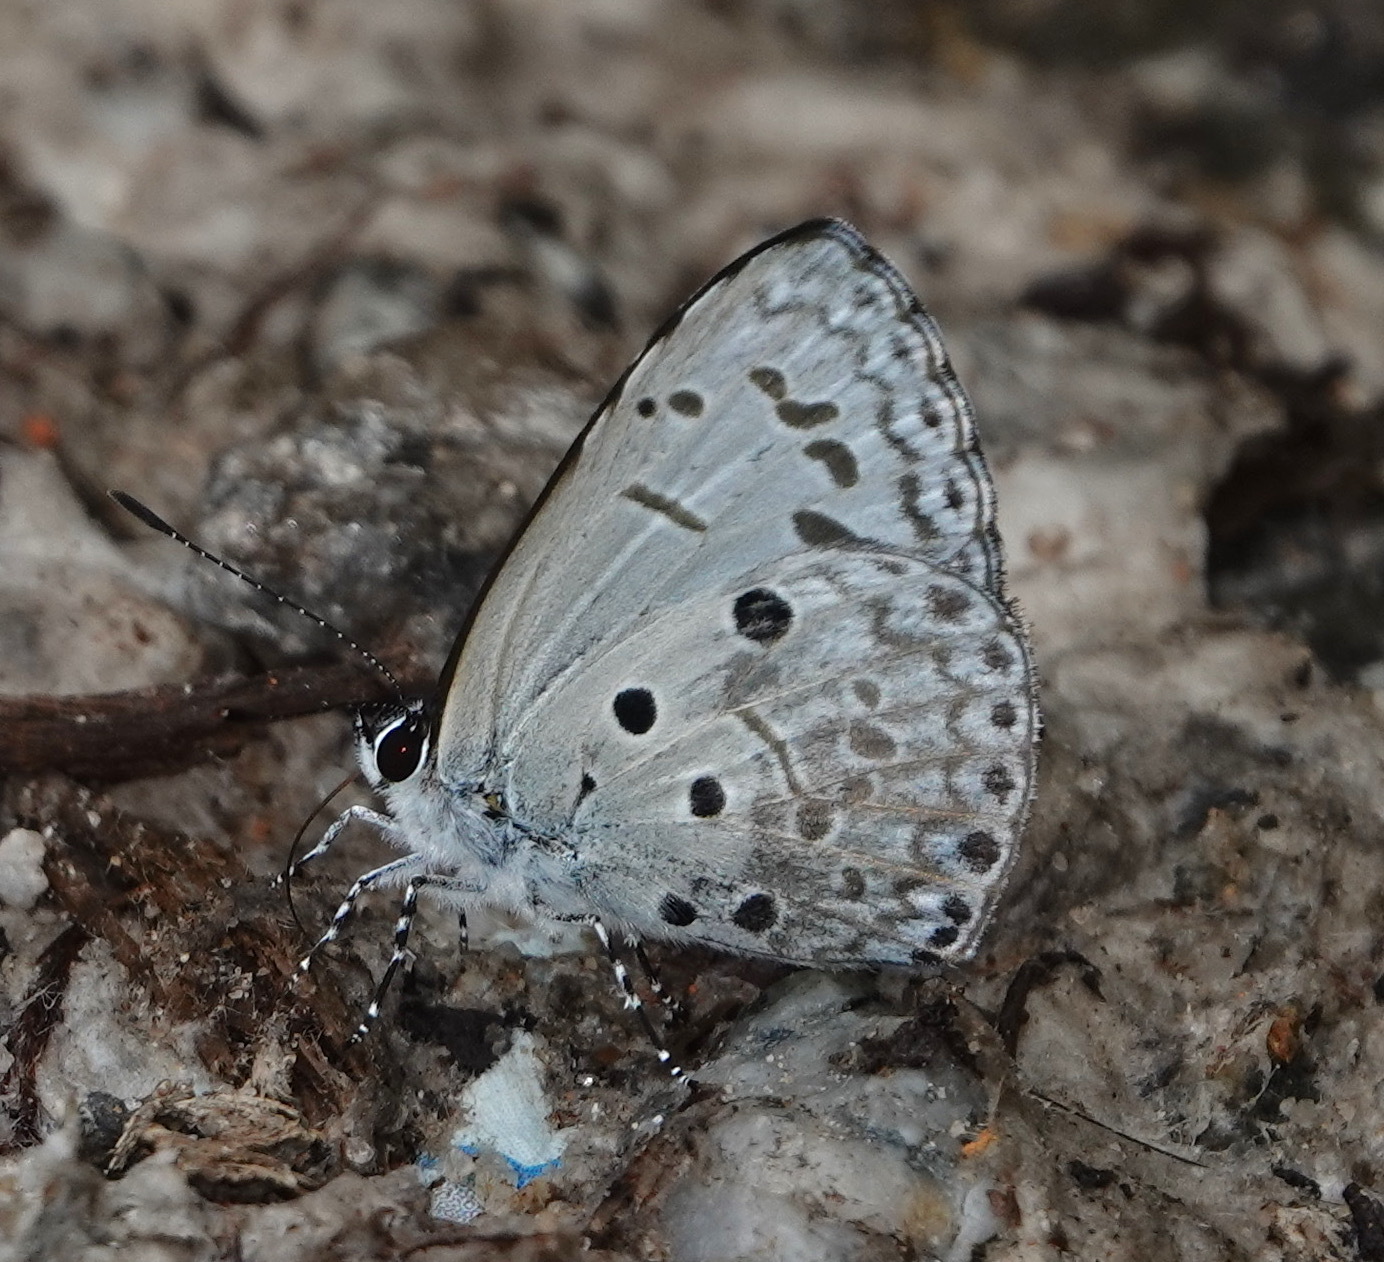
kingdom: Animalia
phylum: Arthropoda
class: Insecta
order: Lepidoptera
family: Lycaenidae
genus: Acytolepis
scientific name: Acytolepis puspa
